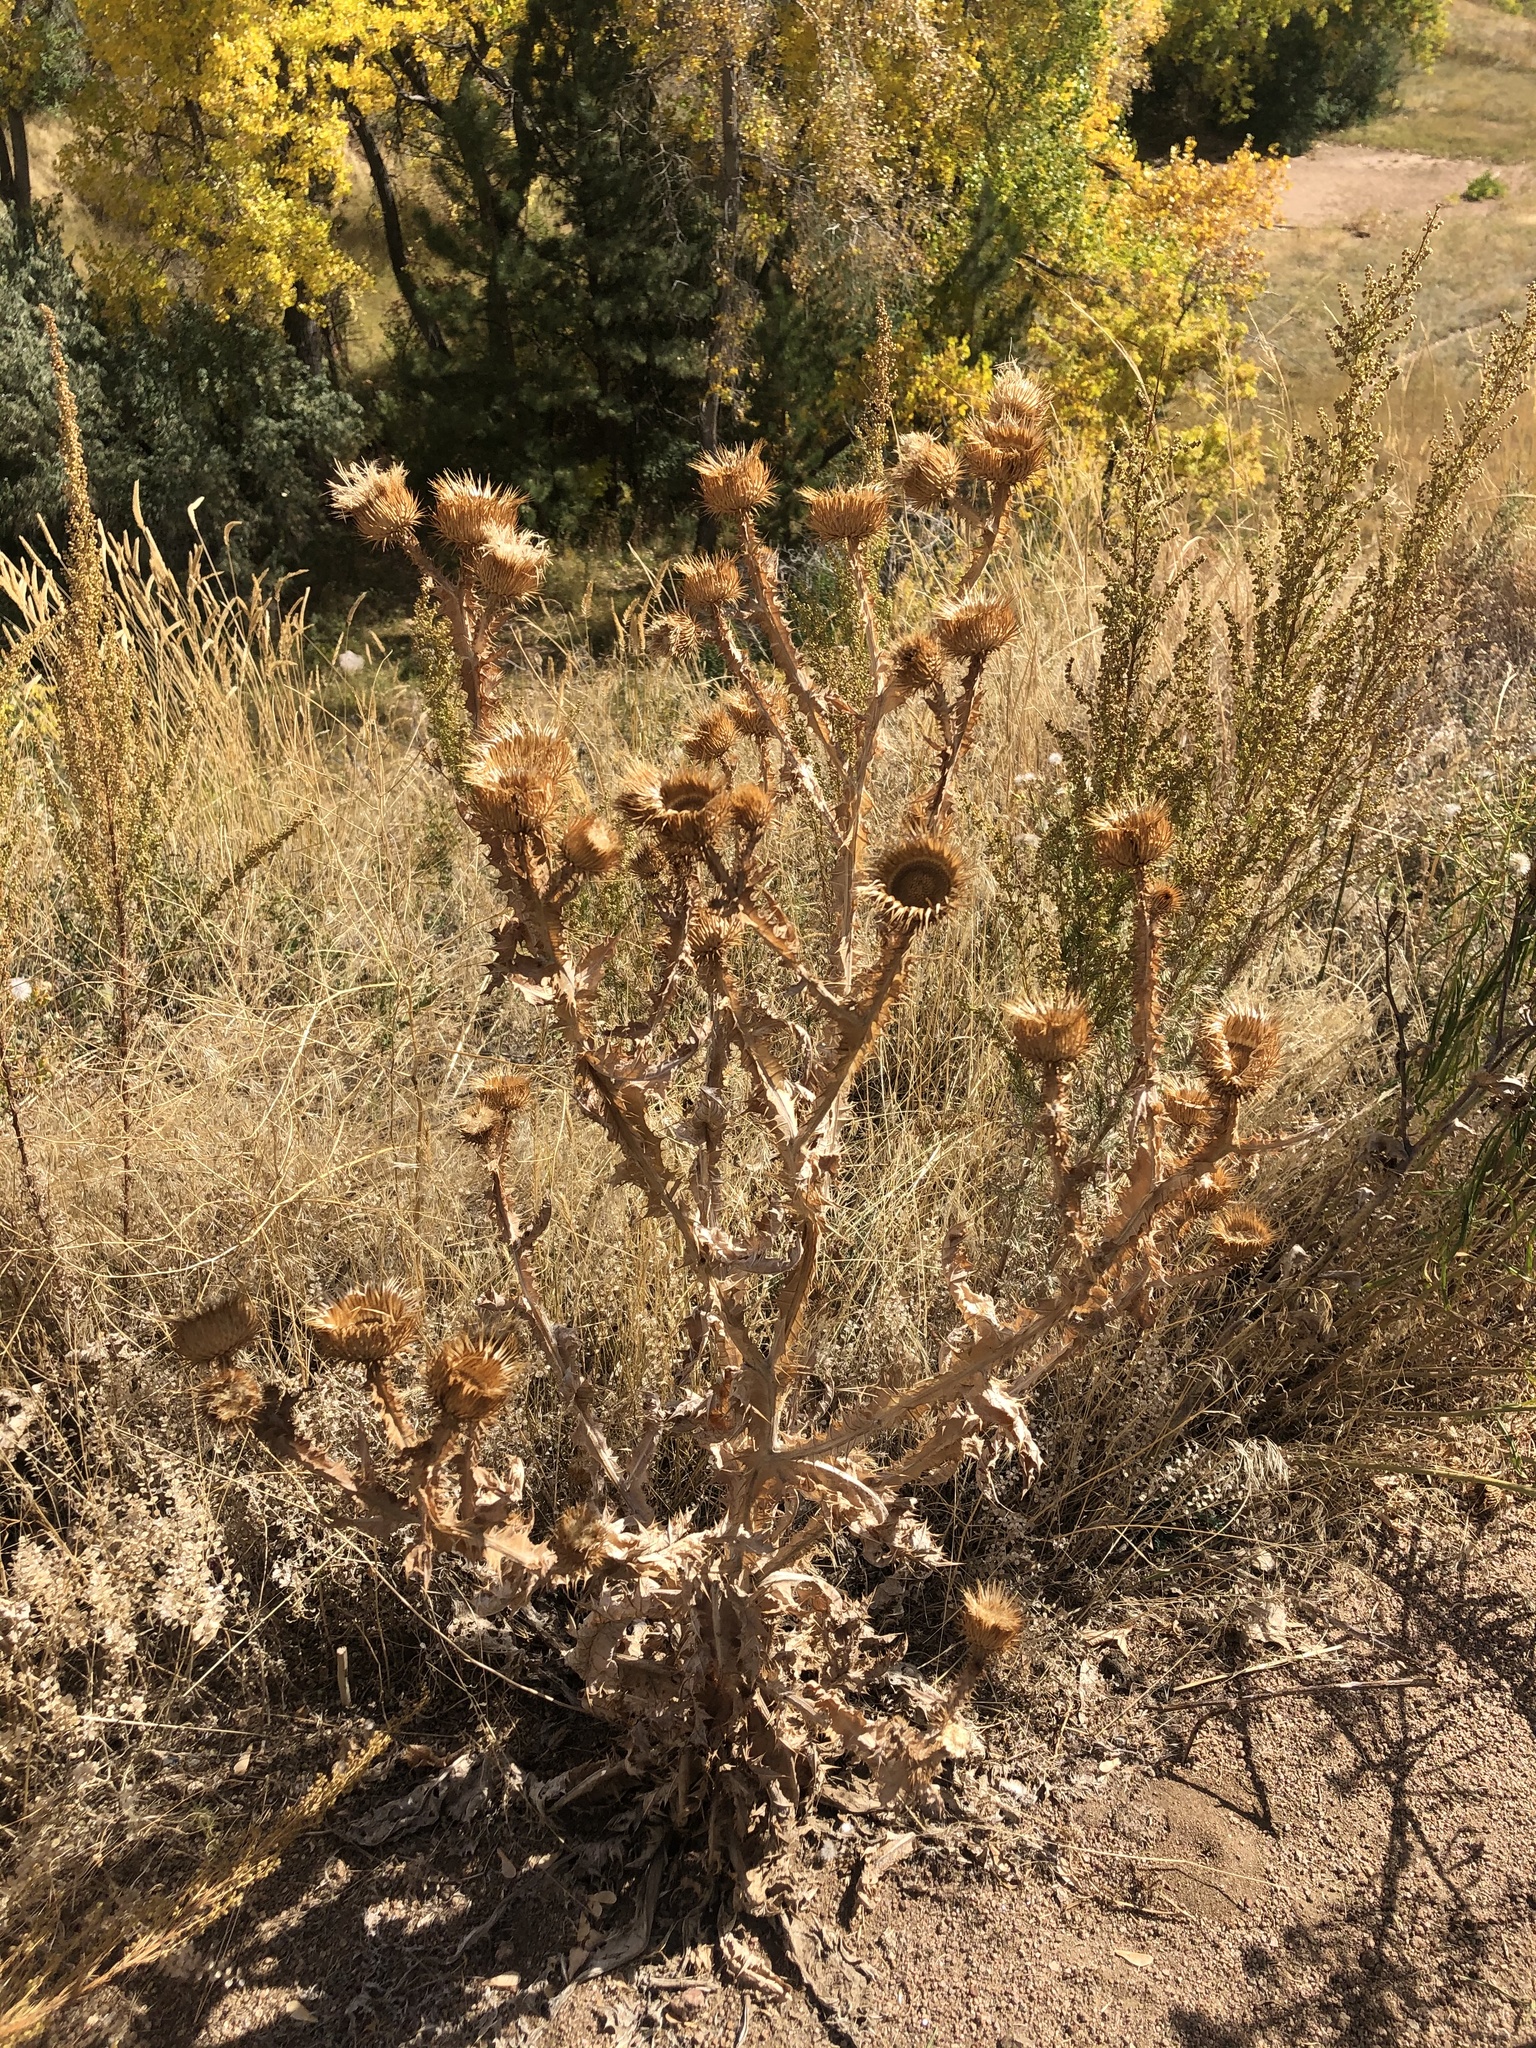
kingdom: Plantae
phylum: Tracheophyta
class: Magnoliopsida
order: Asterales
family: Asteraceae
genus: Onopordum
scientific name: Onopordum acanthium
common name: Scotch thistle
